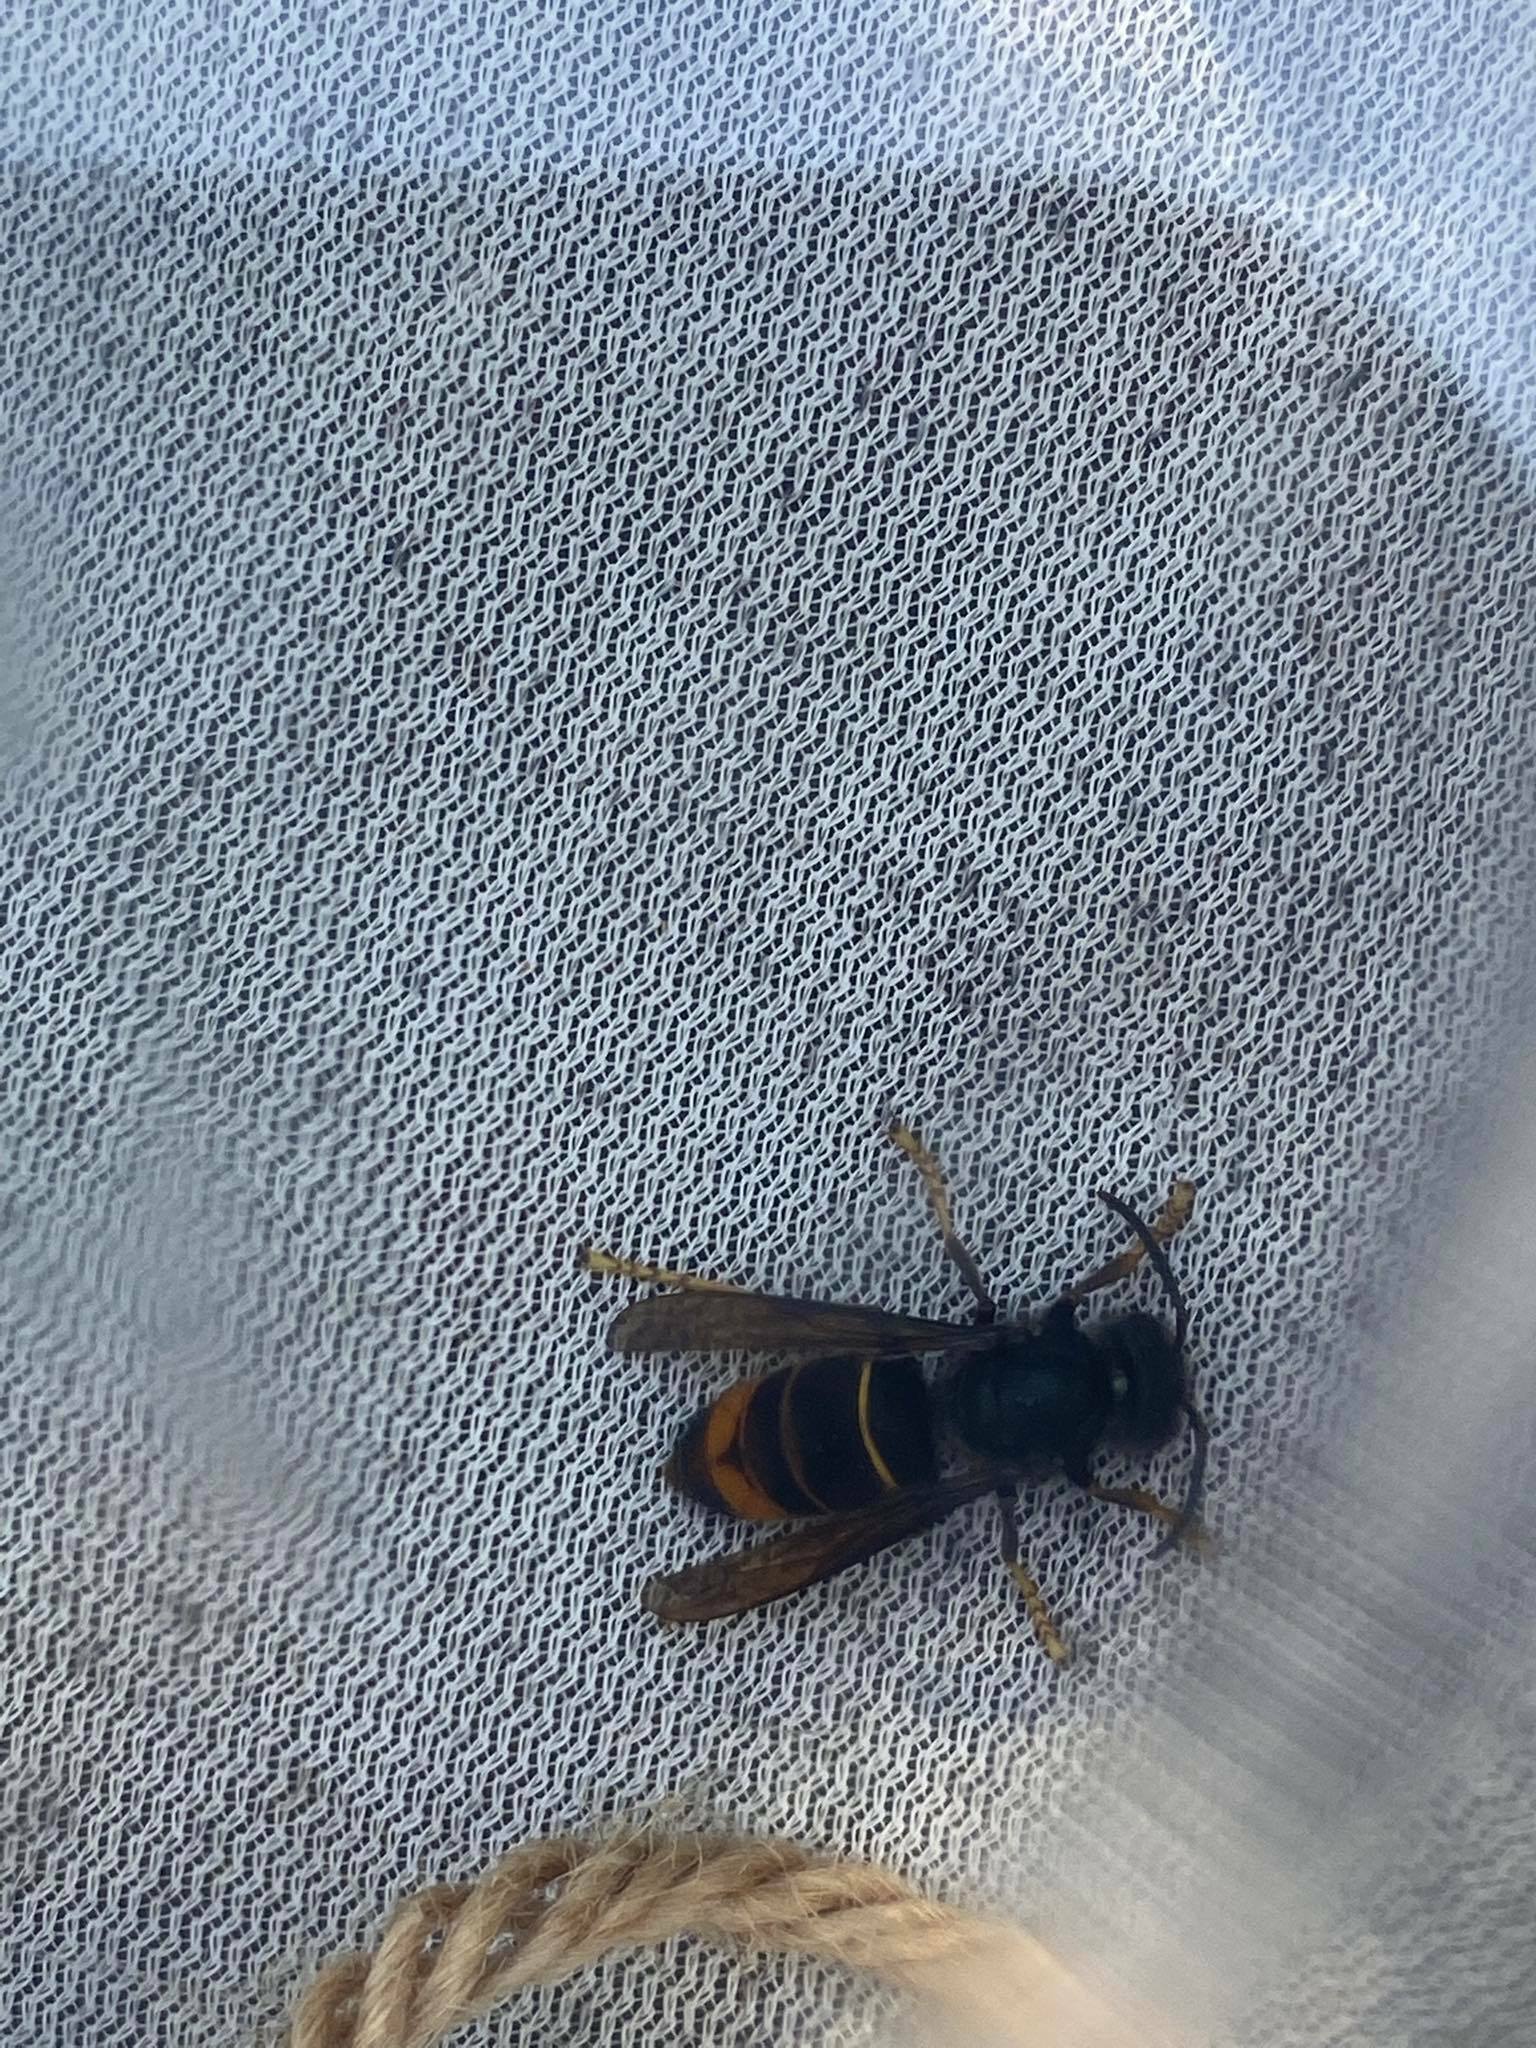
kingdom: Animalia
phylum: Arthropoda
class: Insecta
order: Hymenoptera
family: Vespidae
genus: Vespa
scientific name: Vespa velutina
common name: Asian hornet
